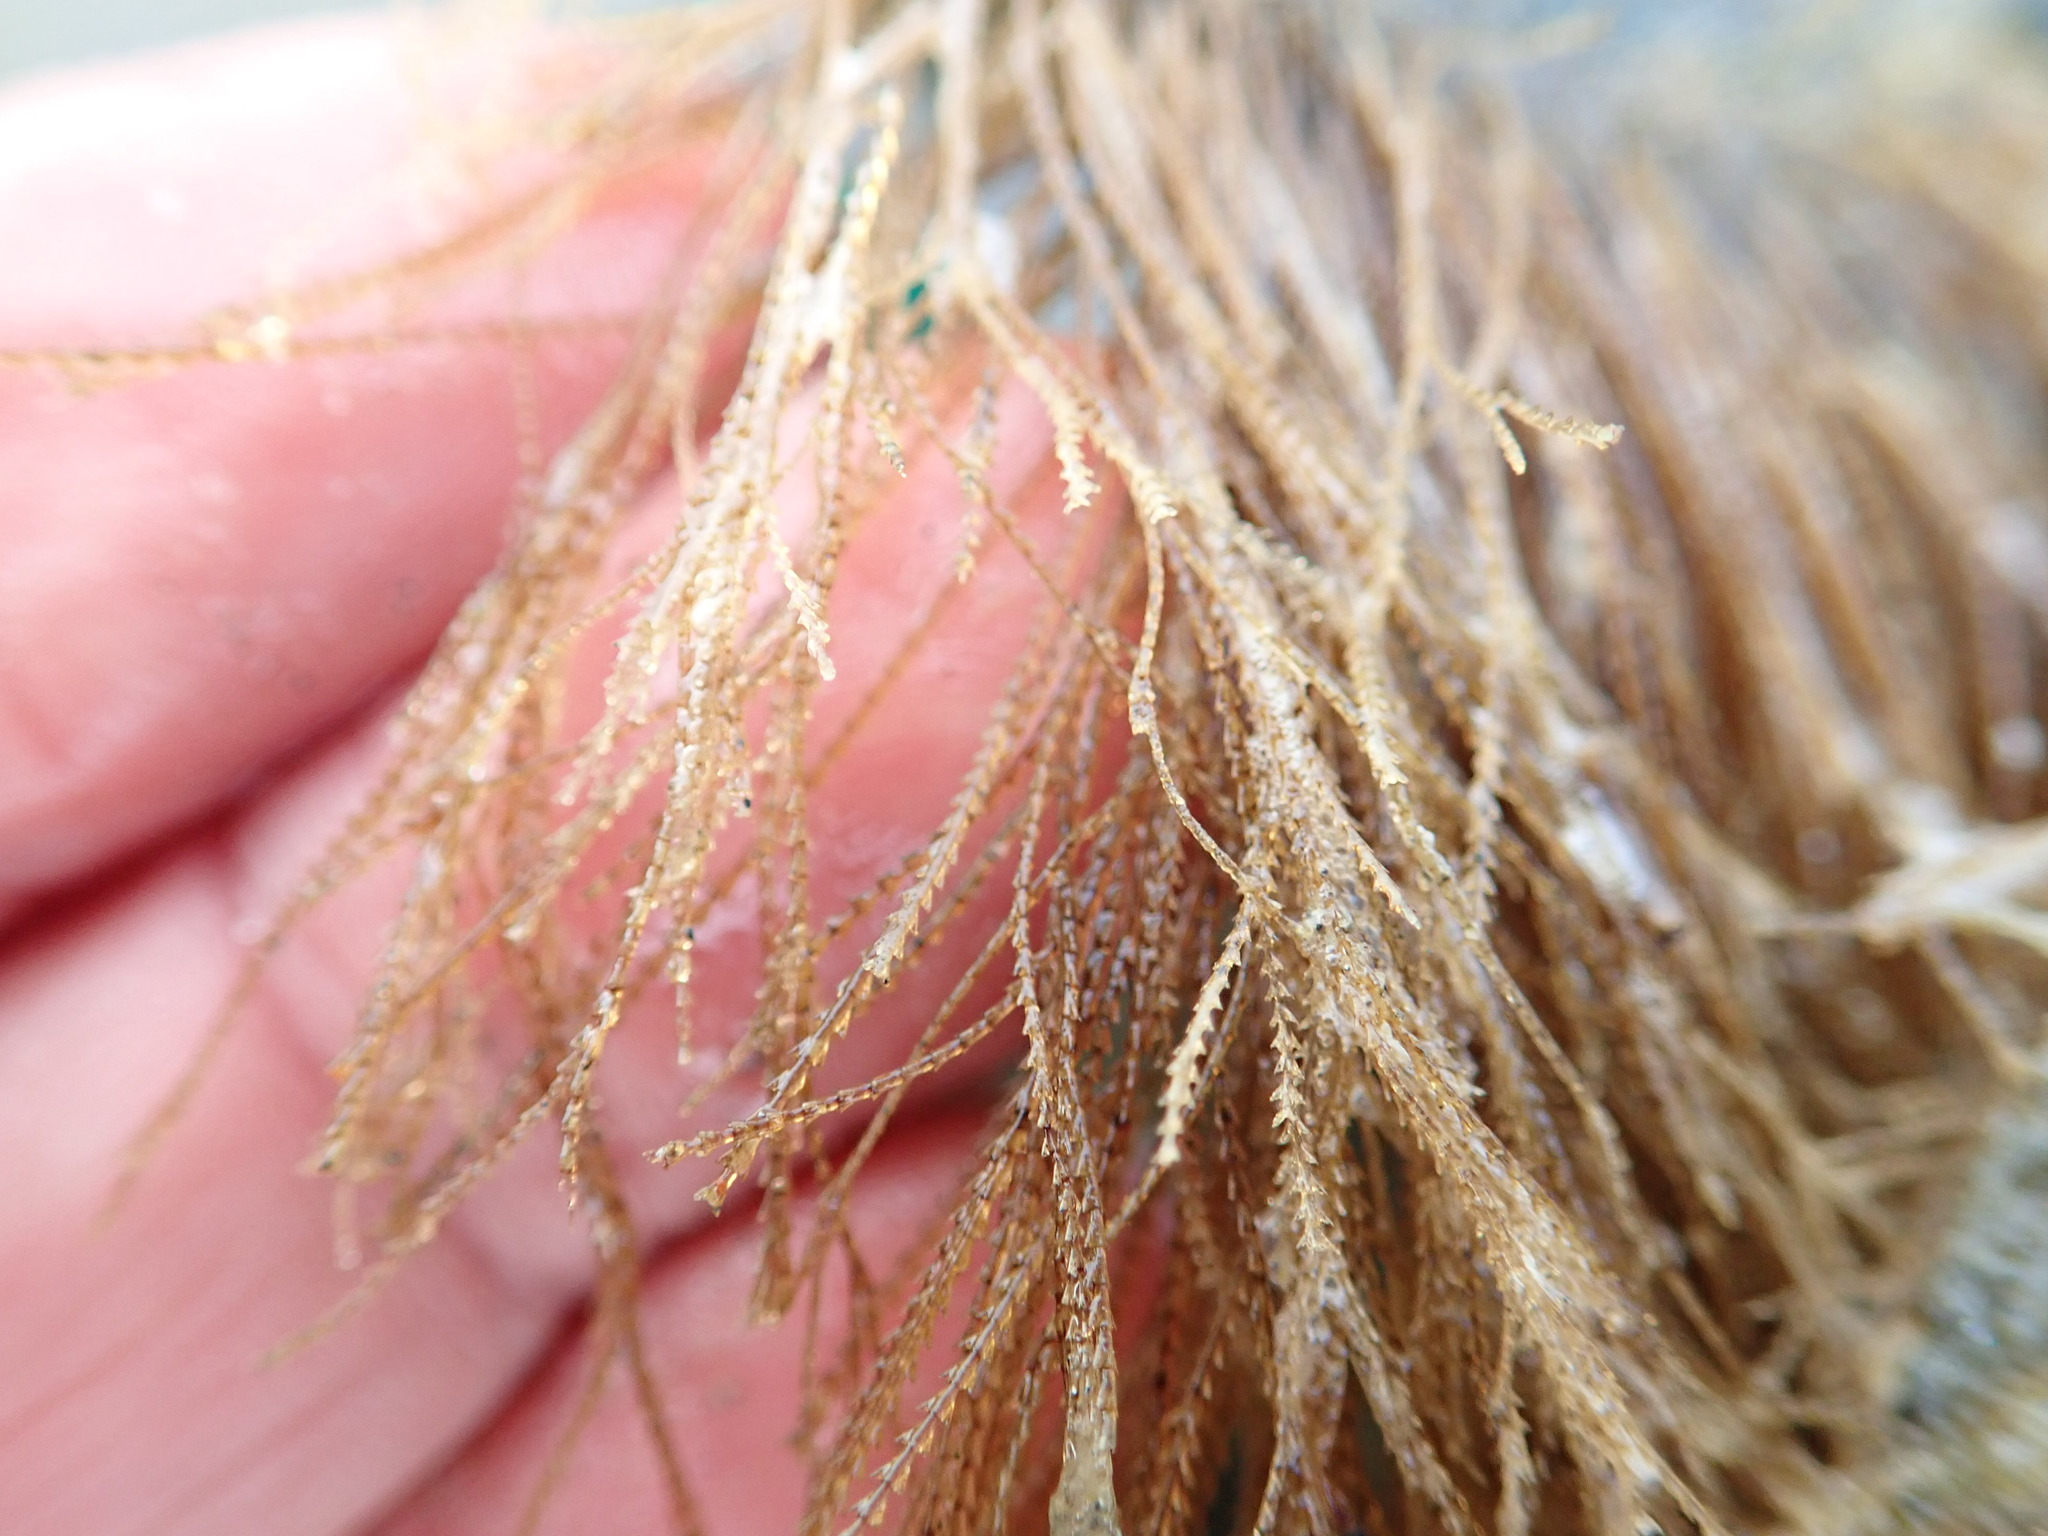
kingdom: Animalia
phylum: Cnidaria
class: Hydrozoa
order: Leptothecata
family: Sertulariidae
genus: Amphisbetia
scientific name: Amphisbetia bispinosa
